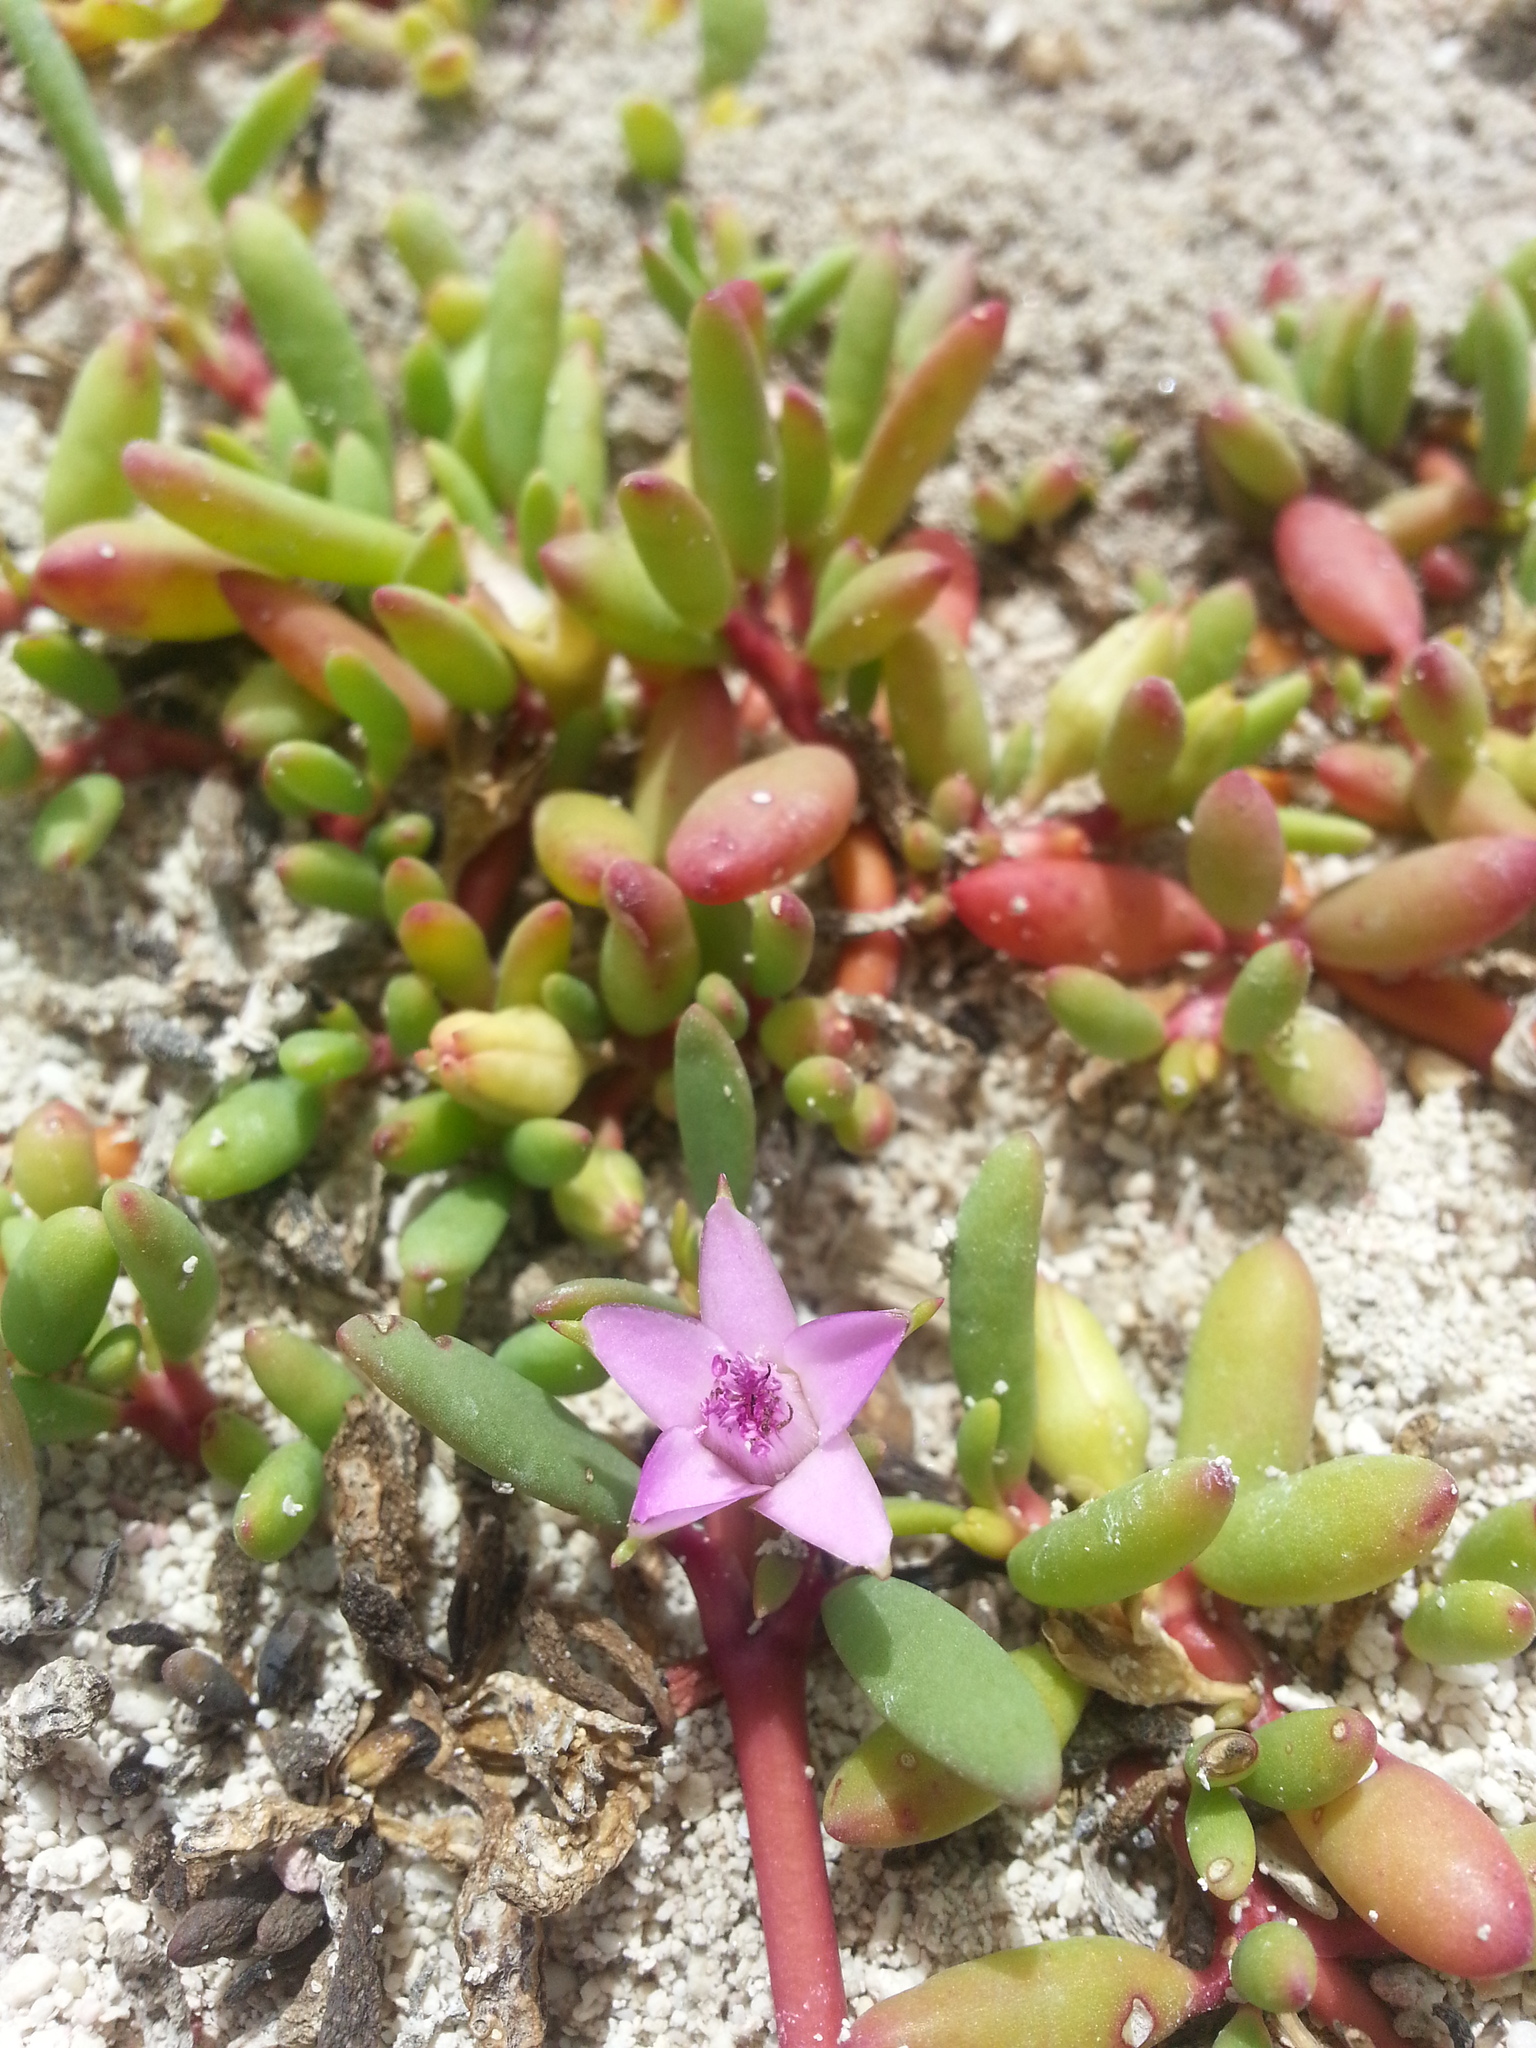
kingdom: Plantae
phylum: Tracheophyta
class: Magnoliopsida
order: Caryophyllales
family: Aizoaceae
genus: Sesuvium
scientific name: Sesuvium portulacastrum
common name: Sea-purslane
